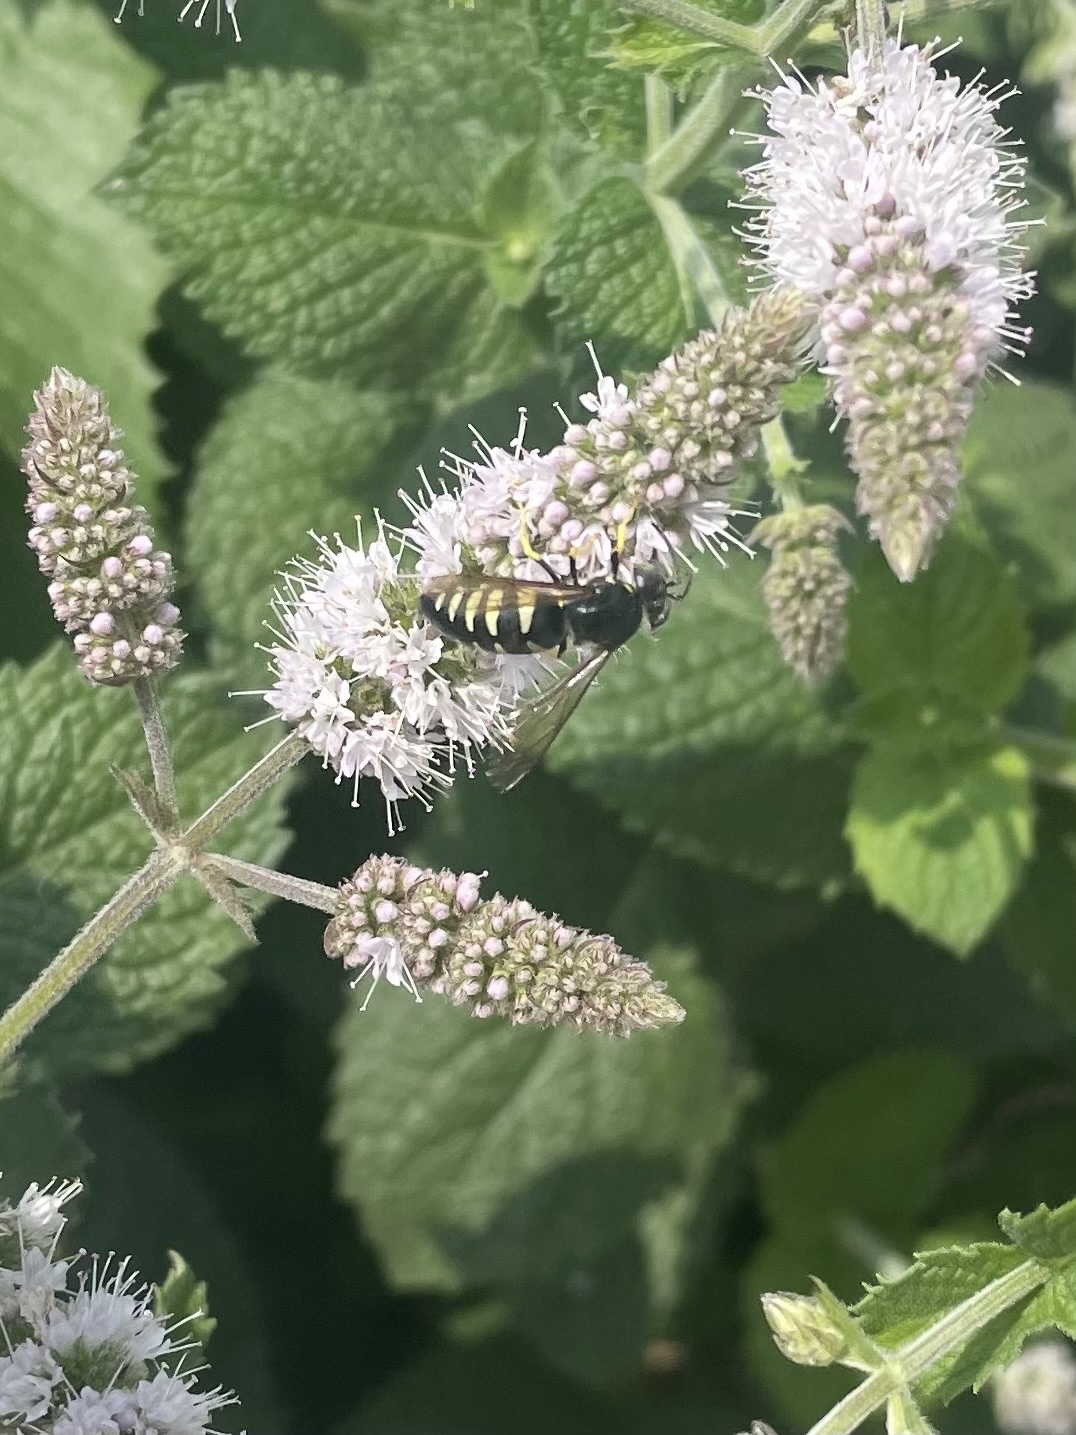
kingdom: Animalia
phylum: Arthropoda
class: Insecta
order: Hymenoptera
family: Crabronidae
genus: Bicyrtes
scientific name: Bicyrtes quadrifasciatus
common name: Four-banded stink bug hunter wasp
